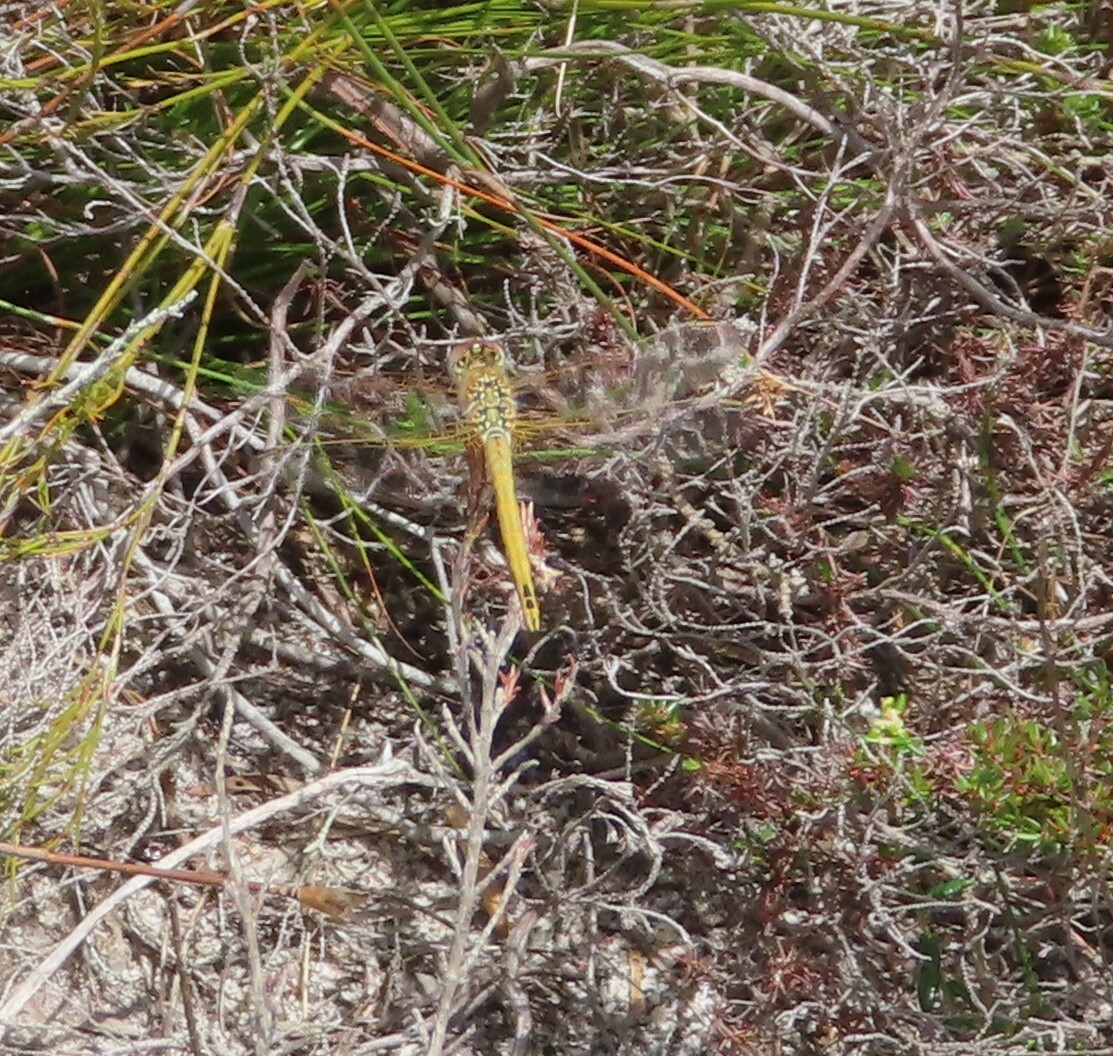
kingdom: Animalia
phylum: Arthropoda
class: Insecta
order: Odonata
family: Libellulidae
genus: Sympetrum
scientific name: Sympetrum fonscolombii
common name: Red-veined darter
